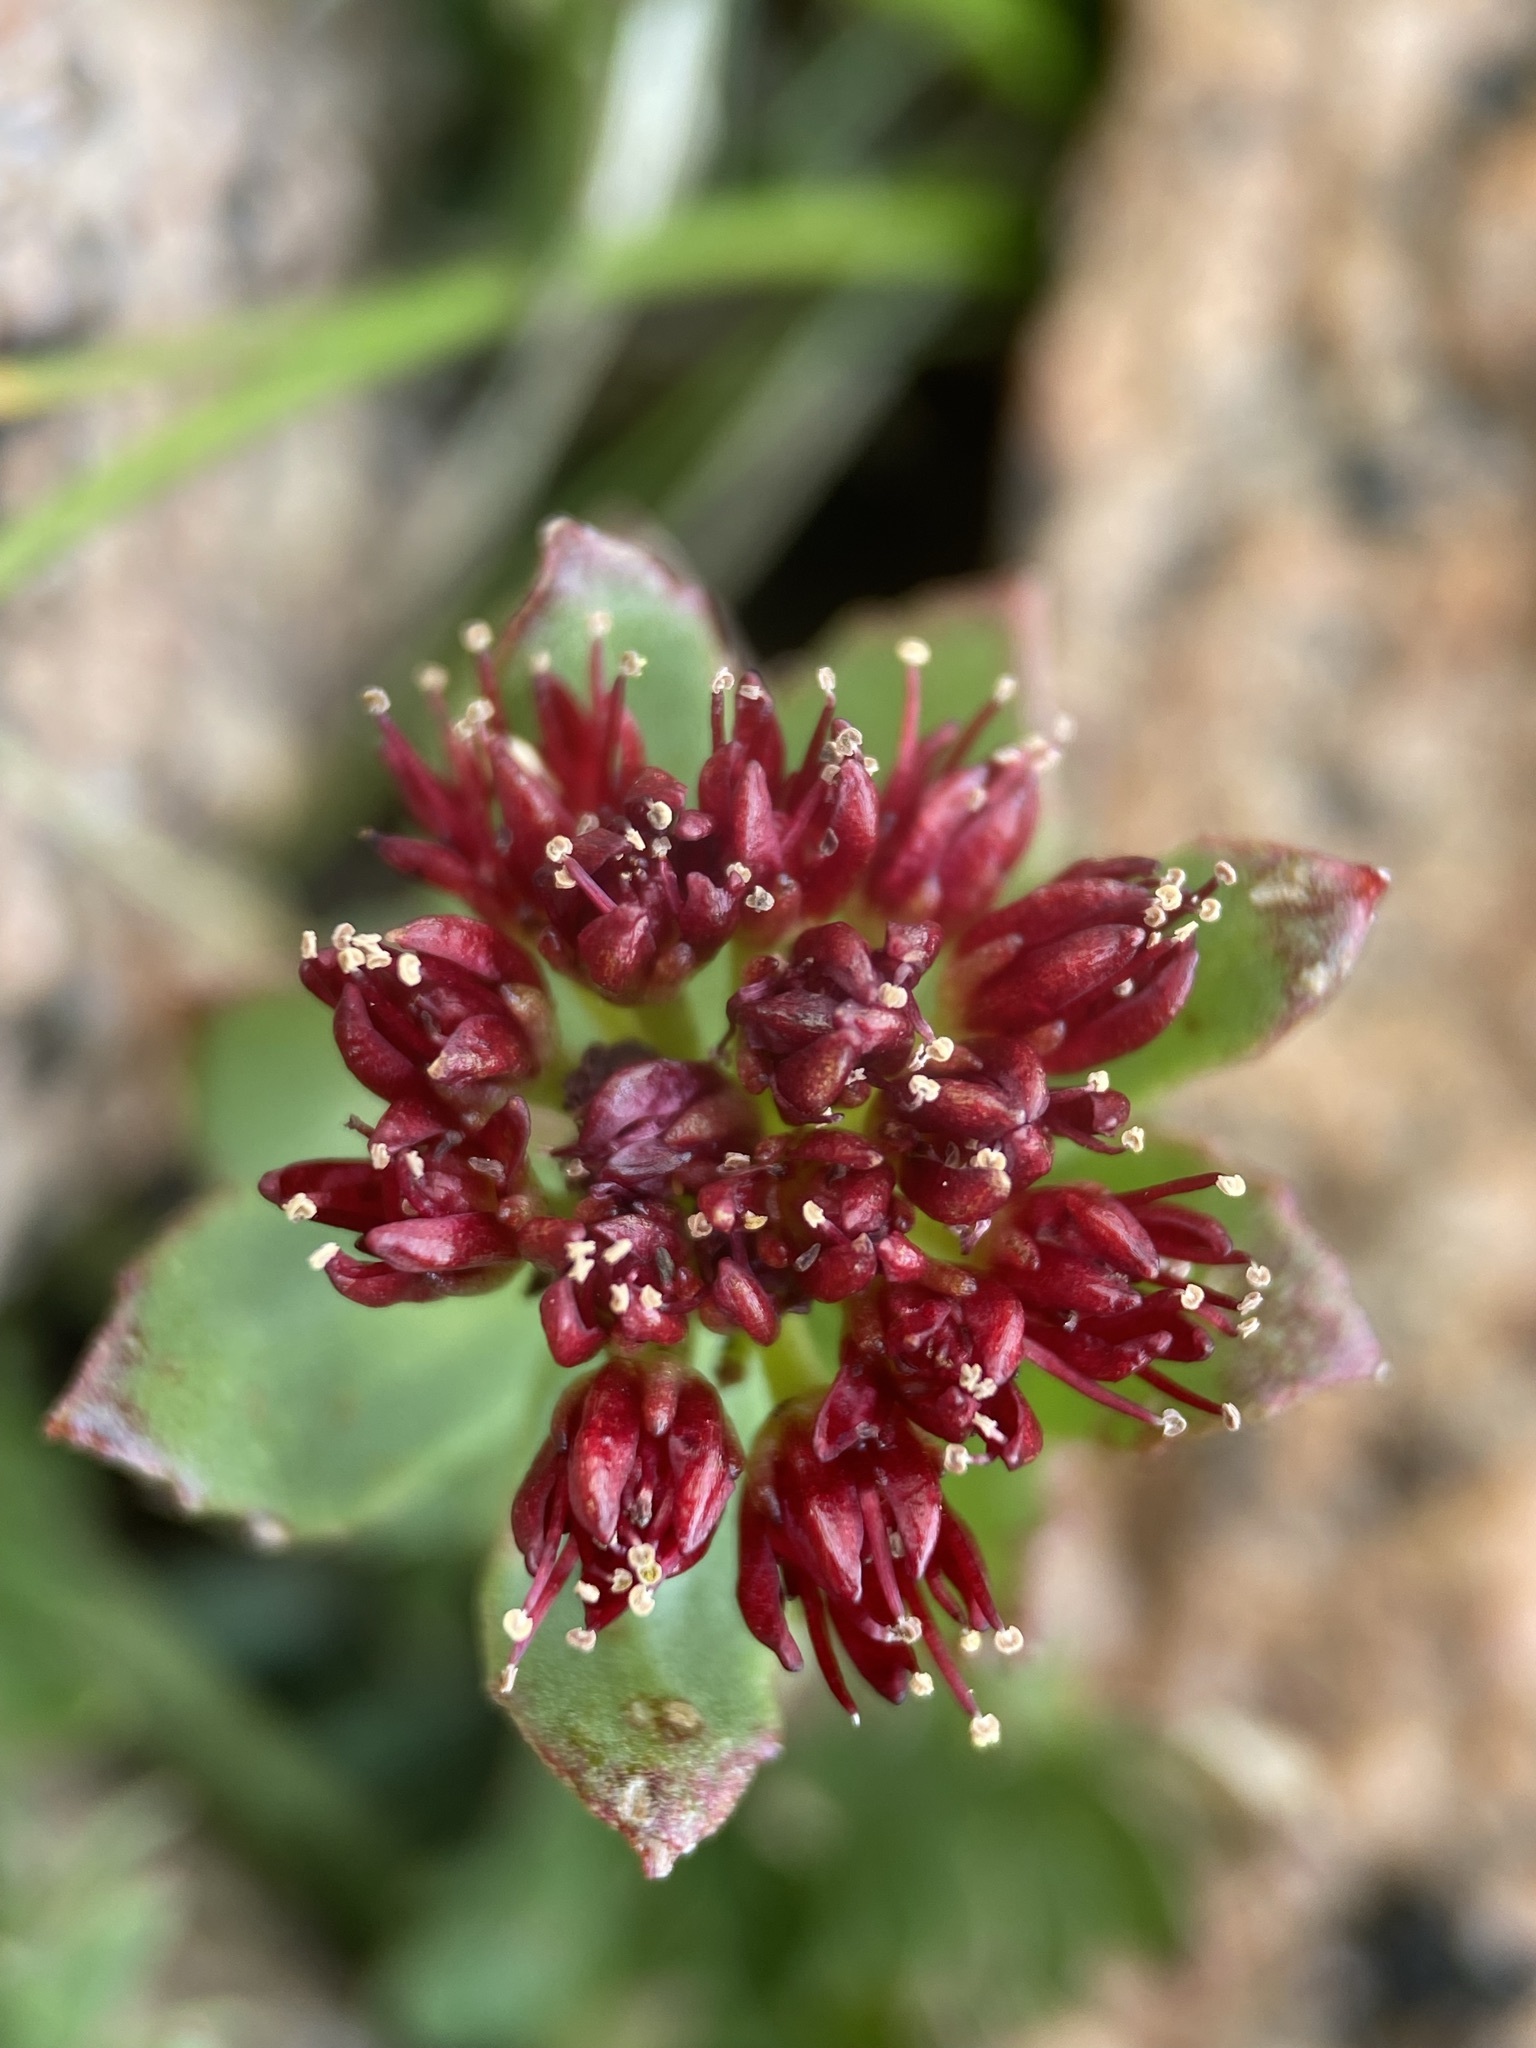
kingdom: Plantae
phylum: Tracheophyta
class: Magnoliopsida
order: Saxifragales
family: Crassulaceae
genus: Rhodiola
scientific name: Rhodiola integrifolia
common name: Western roseroot
